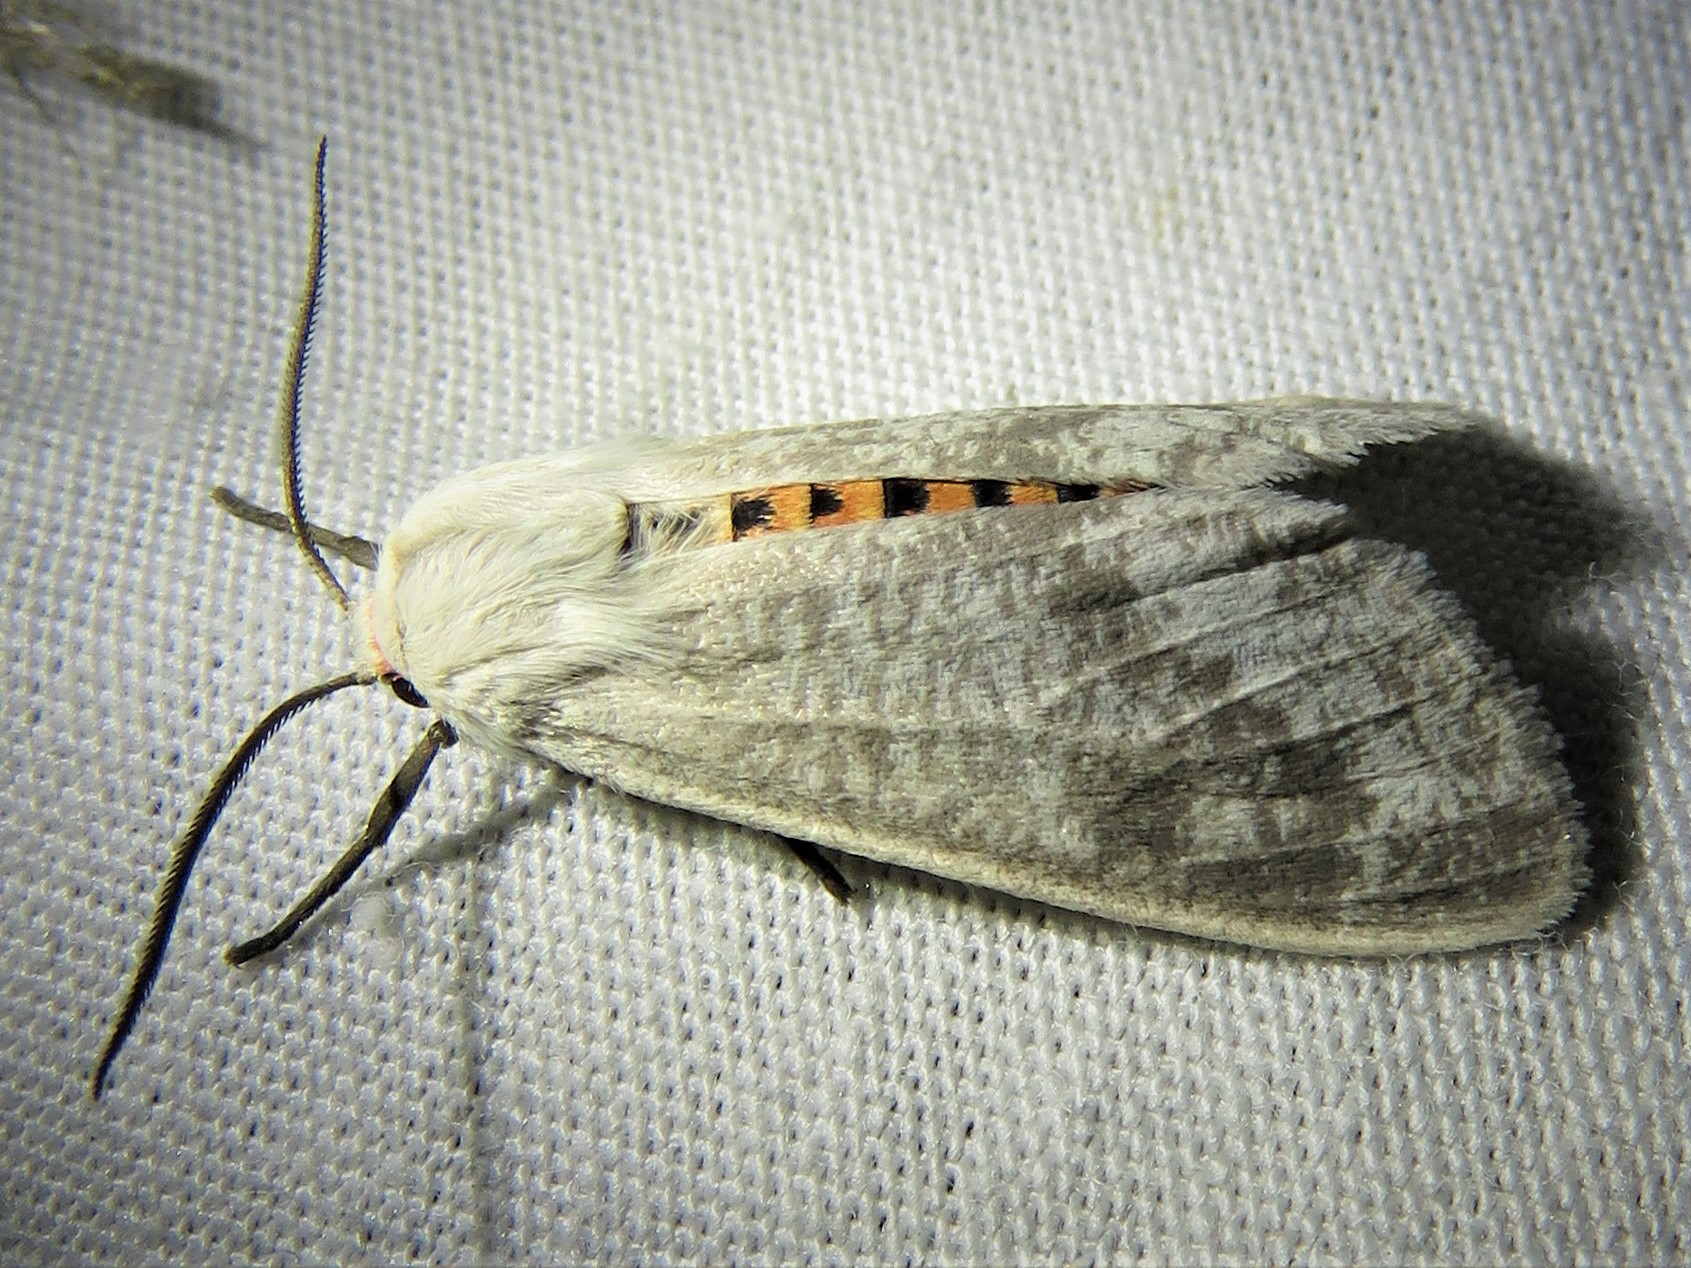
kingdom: Animalia
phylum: Arthropoda
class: Insecta
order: Lepidoptera
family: Erebidae
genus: Euchaetes
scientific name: Euchaetes bolteri
